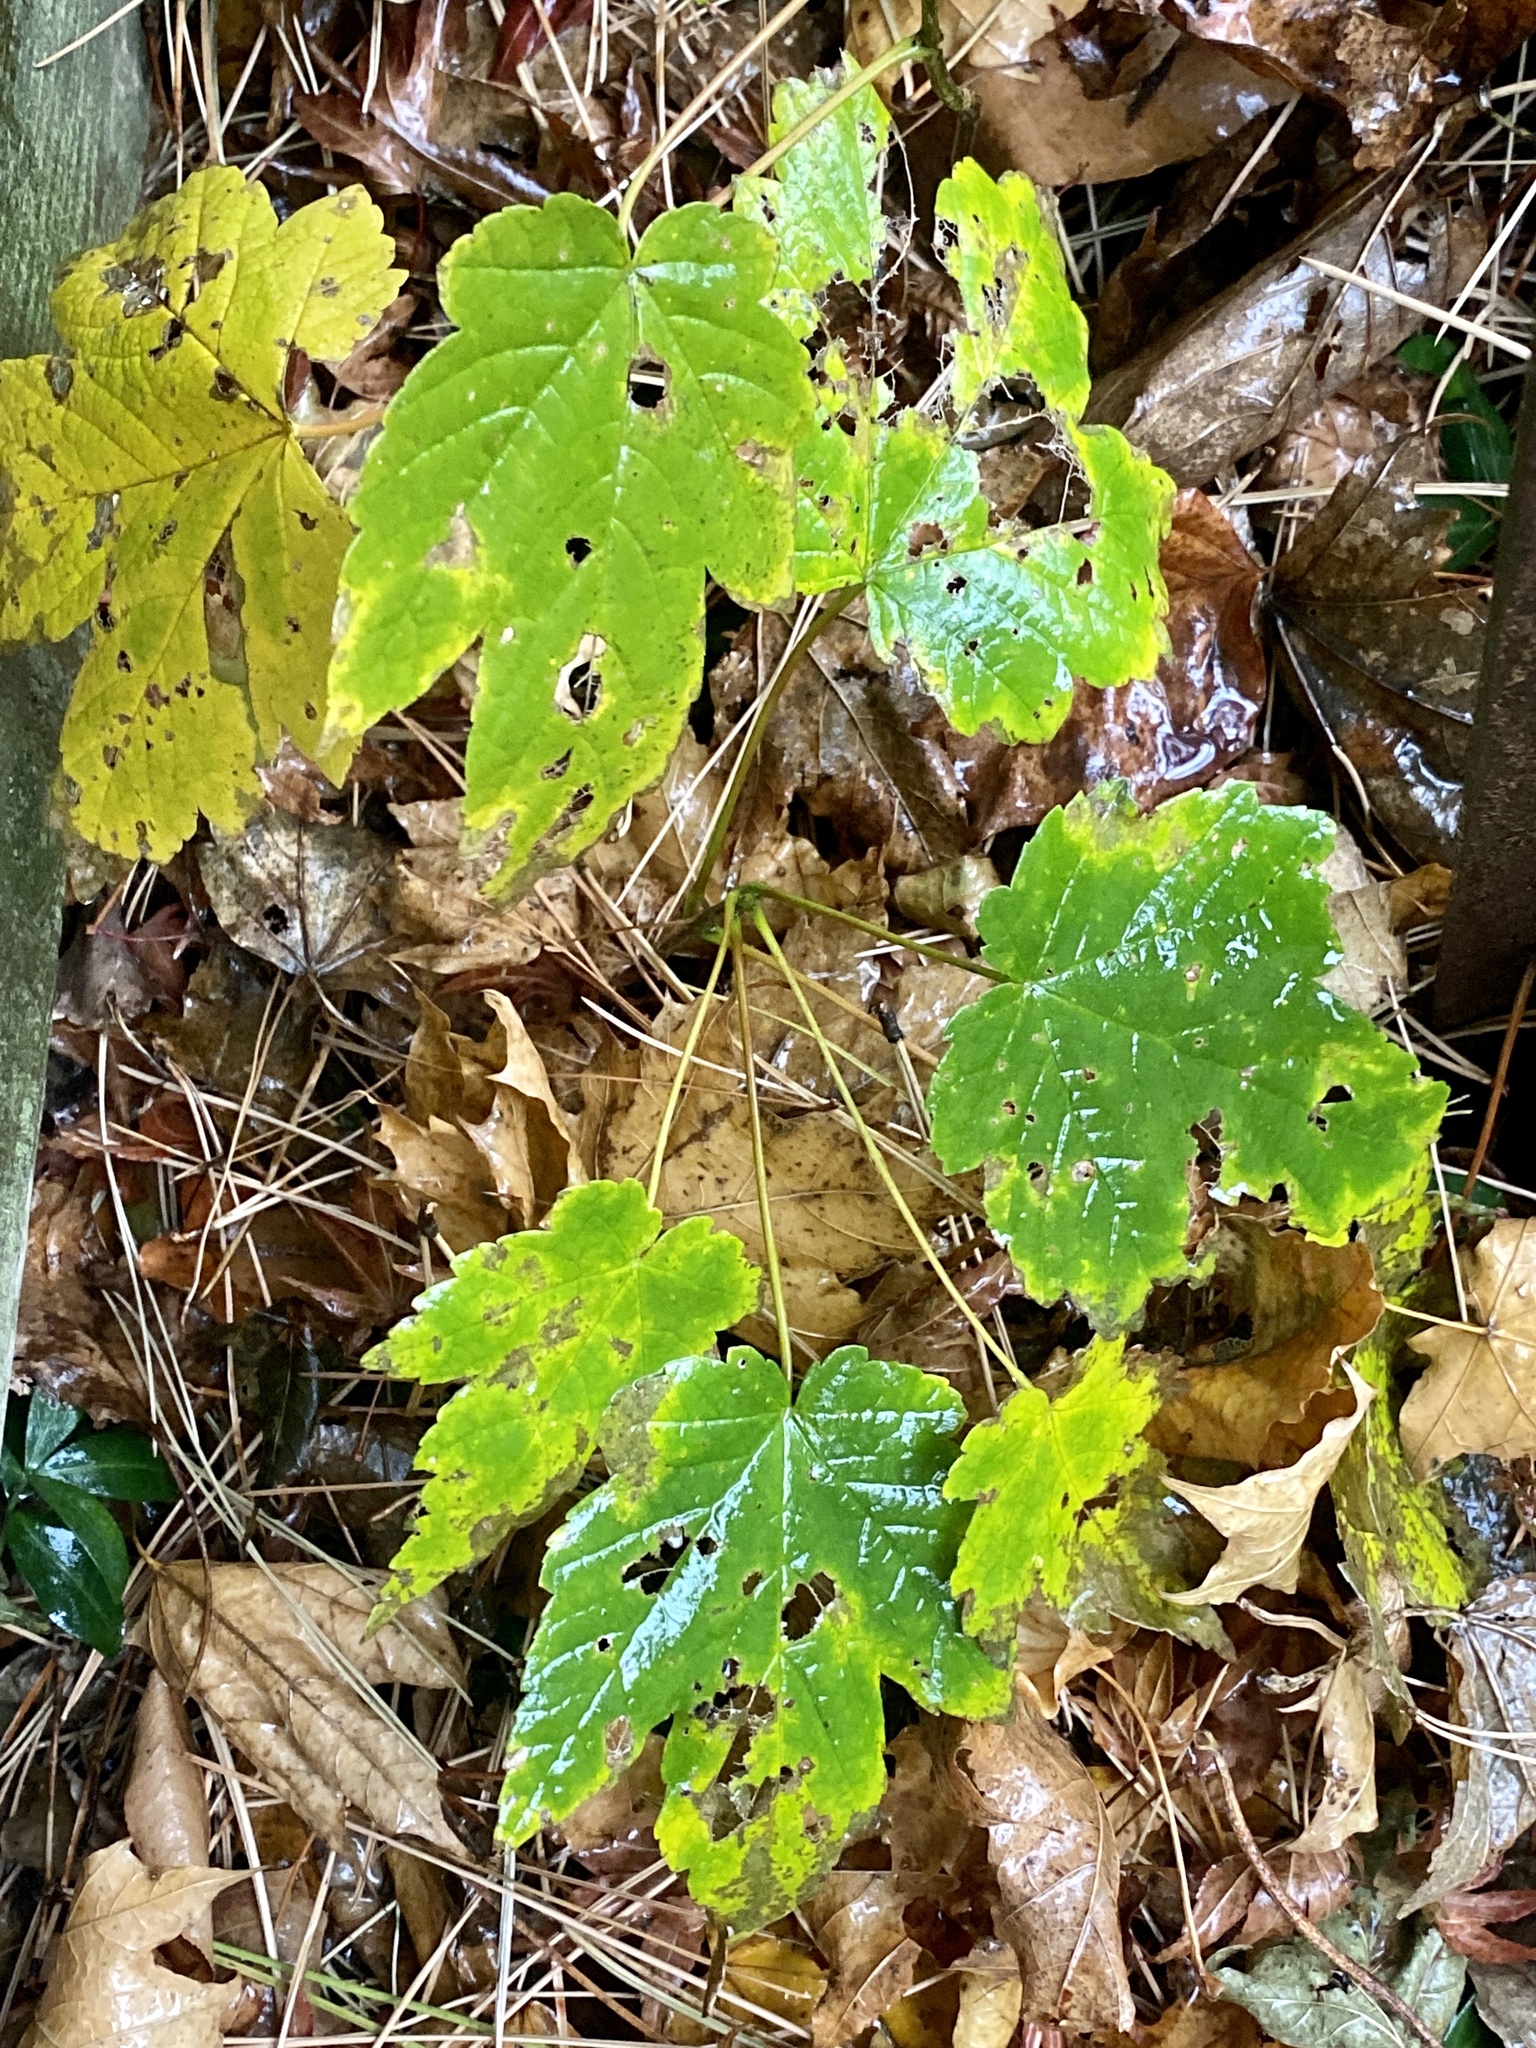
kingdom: Plantae
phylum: Tracheophyta
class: Magnoliopsida
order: Sapindales
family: Sapindaceae
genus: Acer
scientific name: Acer pseudoplatanus
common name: Sycamore
